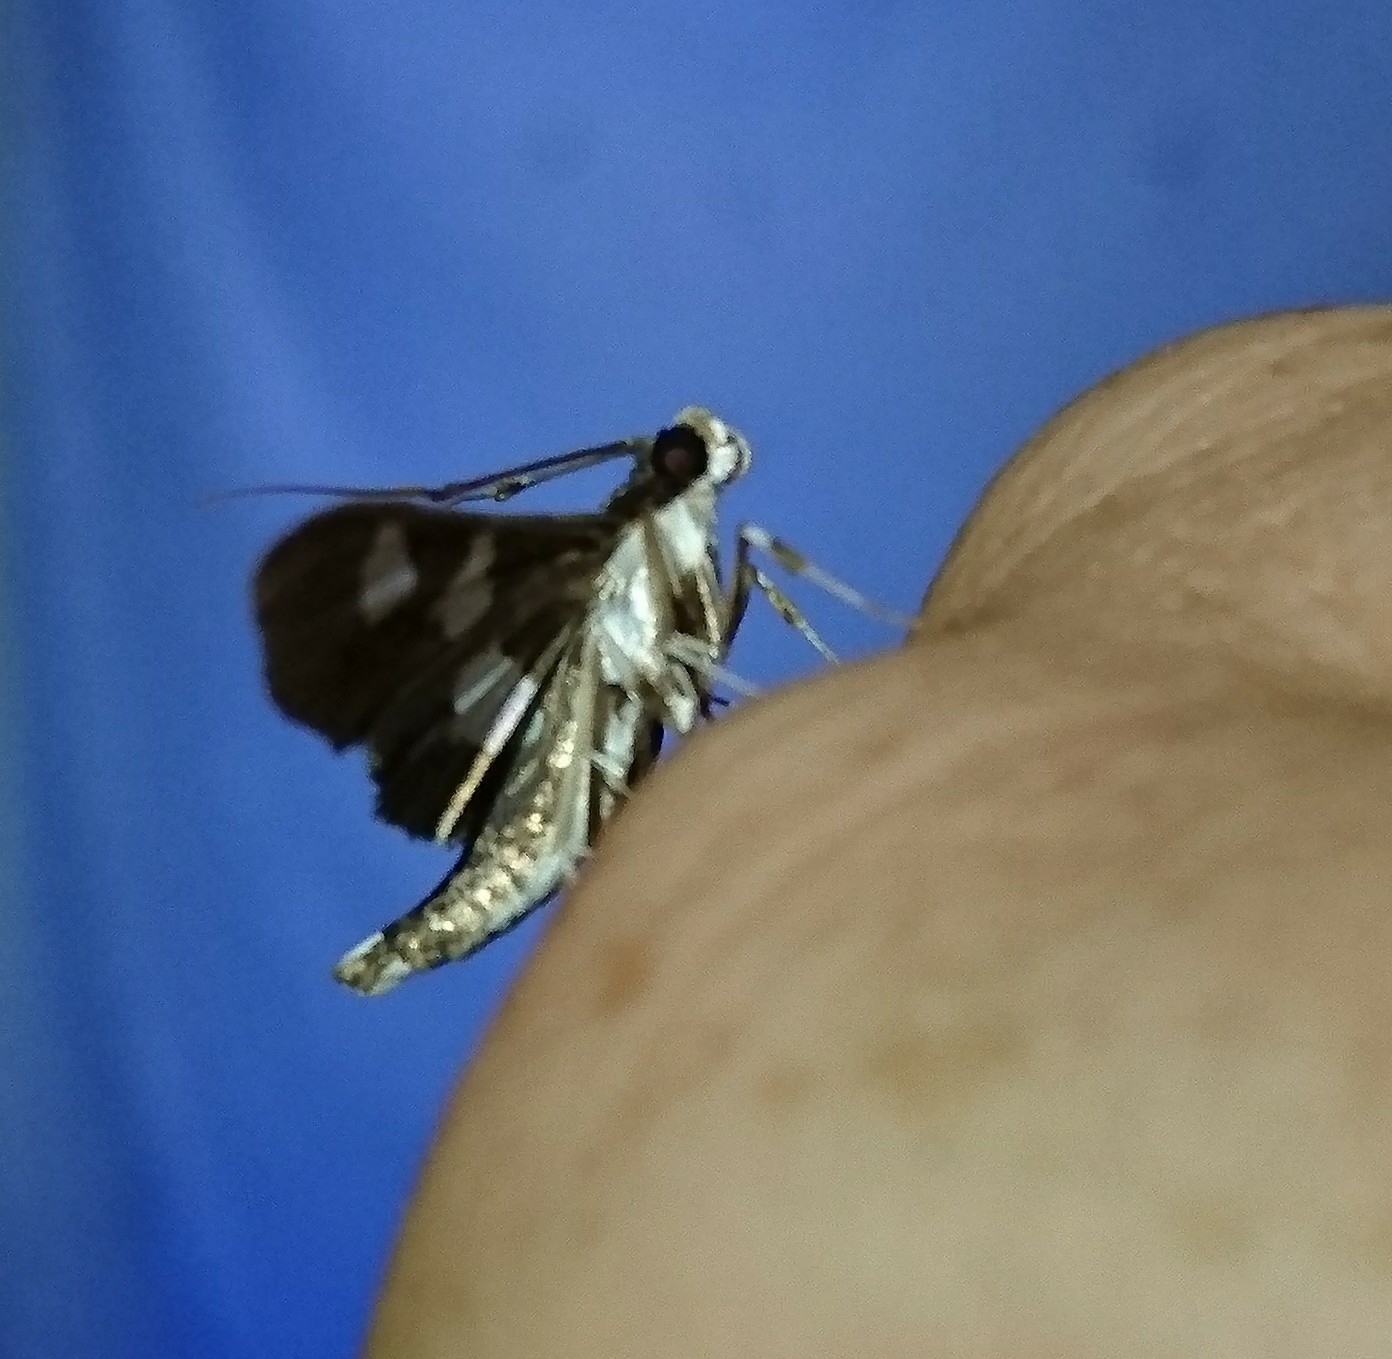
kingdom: Animalia
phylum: Arthropoda
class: Insecta
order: Lepidoptera
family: Crambidae
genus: Desmia
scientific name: Desmia funeralis
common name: Grape leaf folder moth
